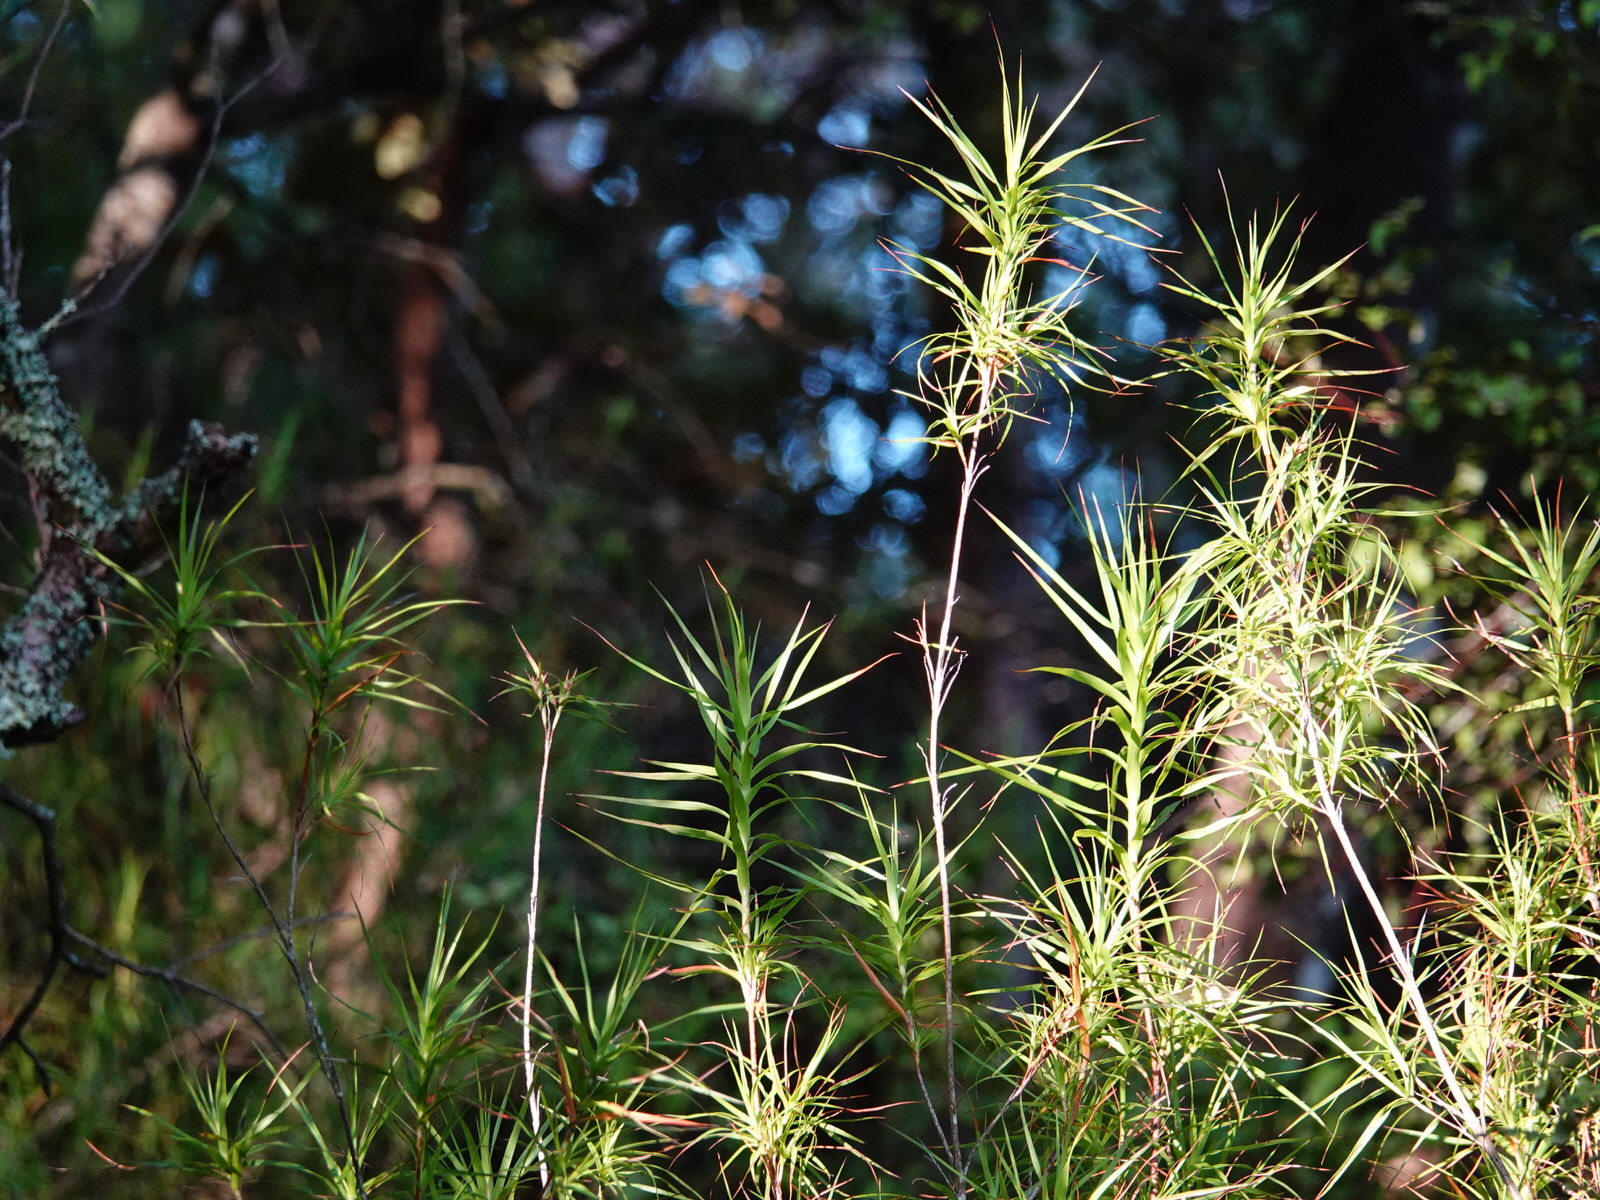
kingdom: Plantae
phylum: Tracheophyta
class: Magnoliopsida
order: Ericales
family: Ericaceae
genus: Dracophyllum
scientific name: Dracophyllum sinclairii
